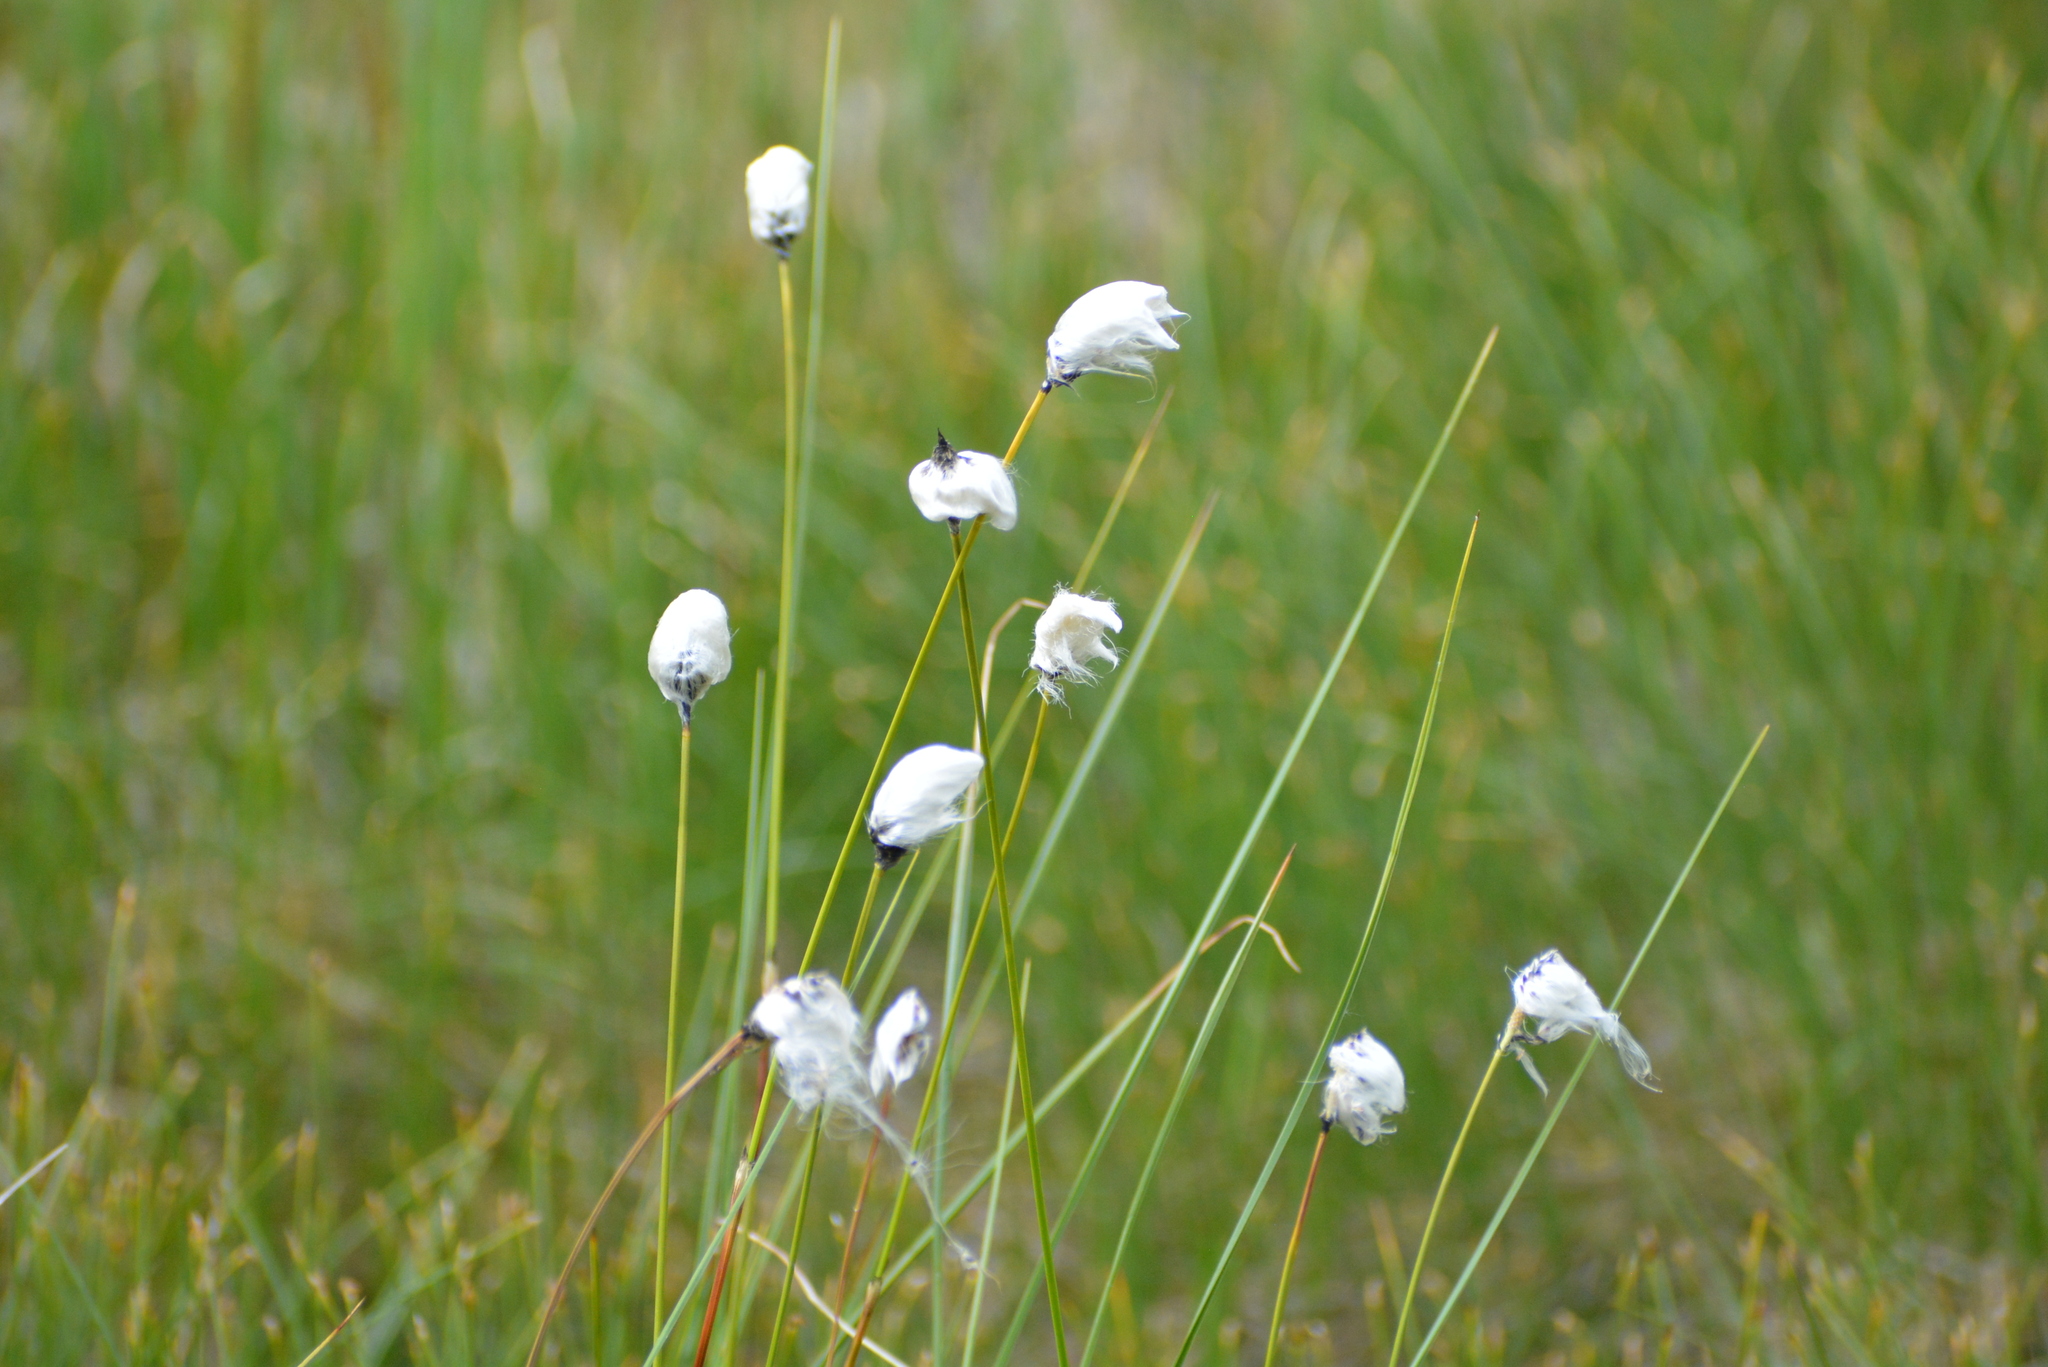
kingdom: Plantae
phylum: Tracheophyta
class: Liliopsida
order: Poales
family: Cyperaceae
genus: Eriophorum
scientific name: Eriophorum vaginatum
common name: Hare's-tail cottongrass
